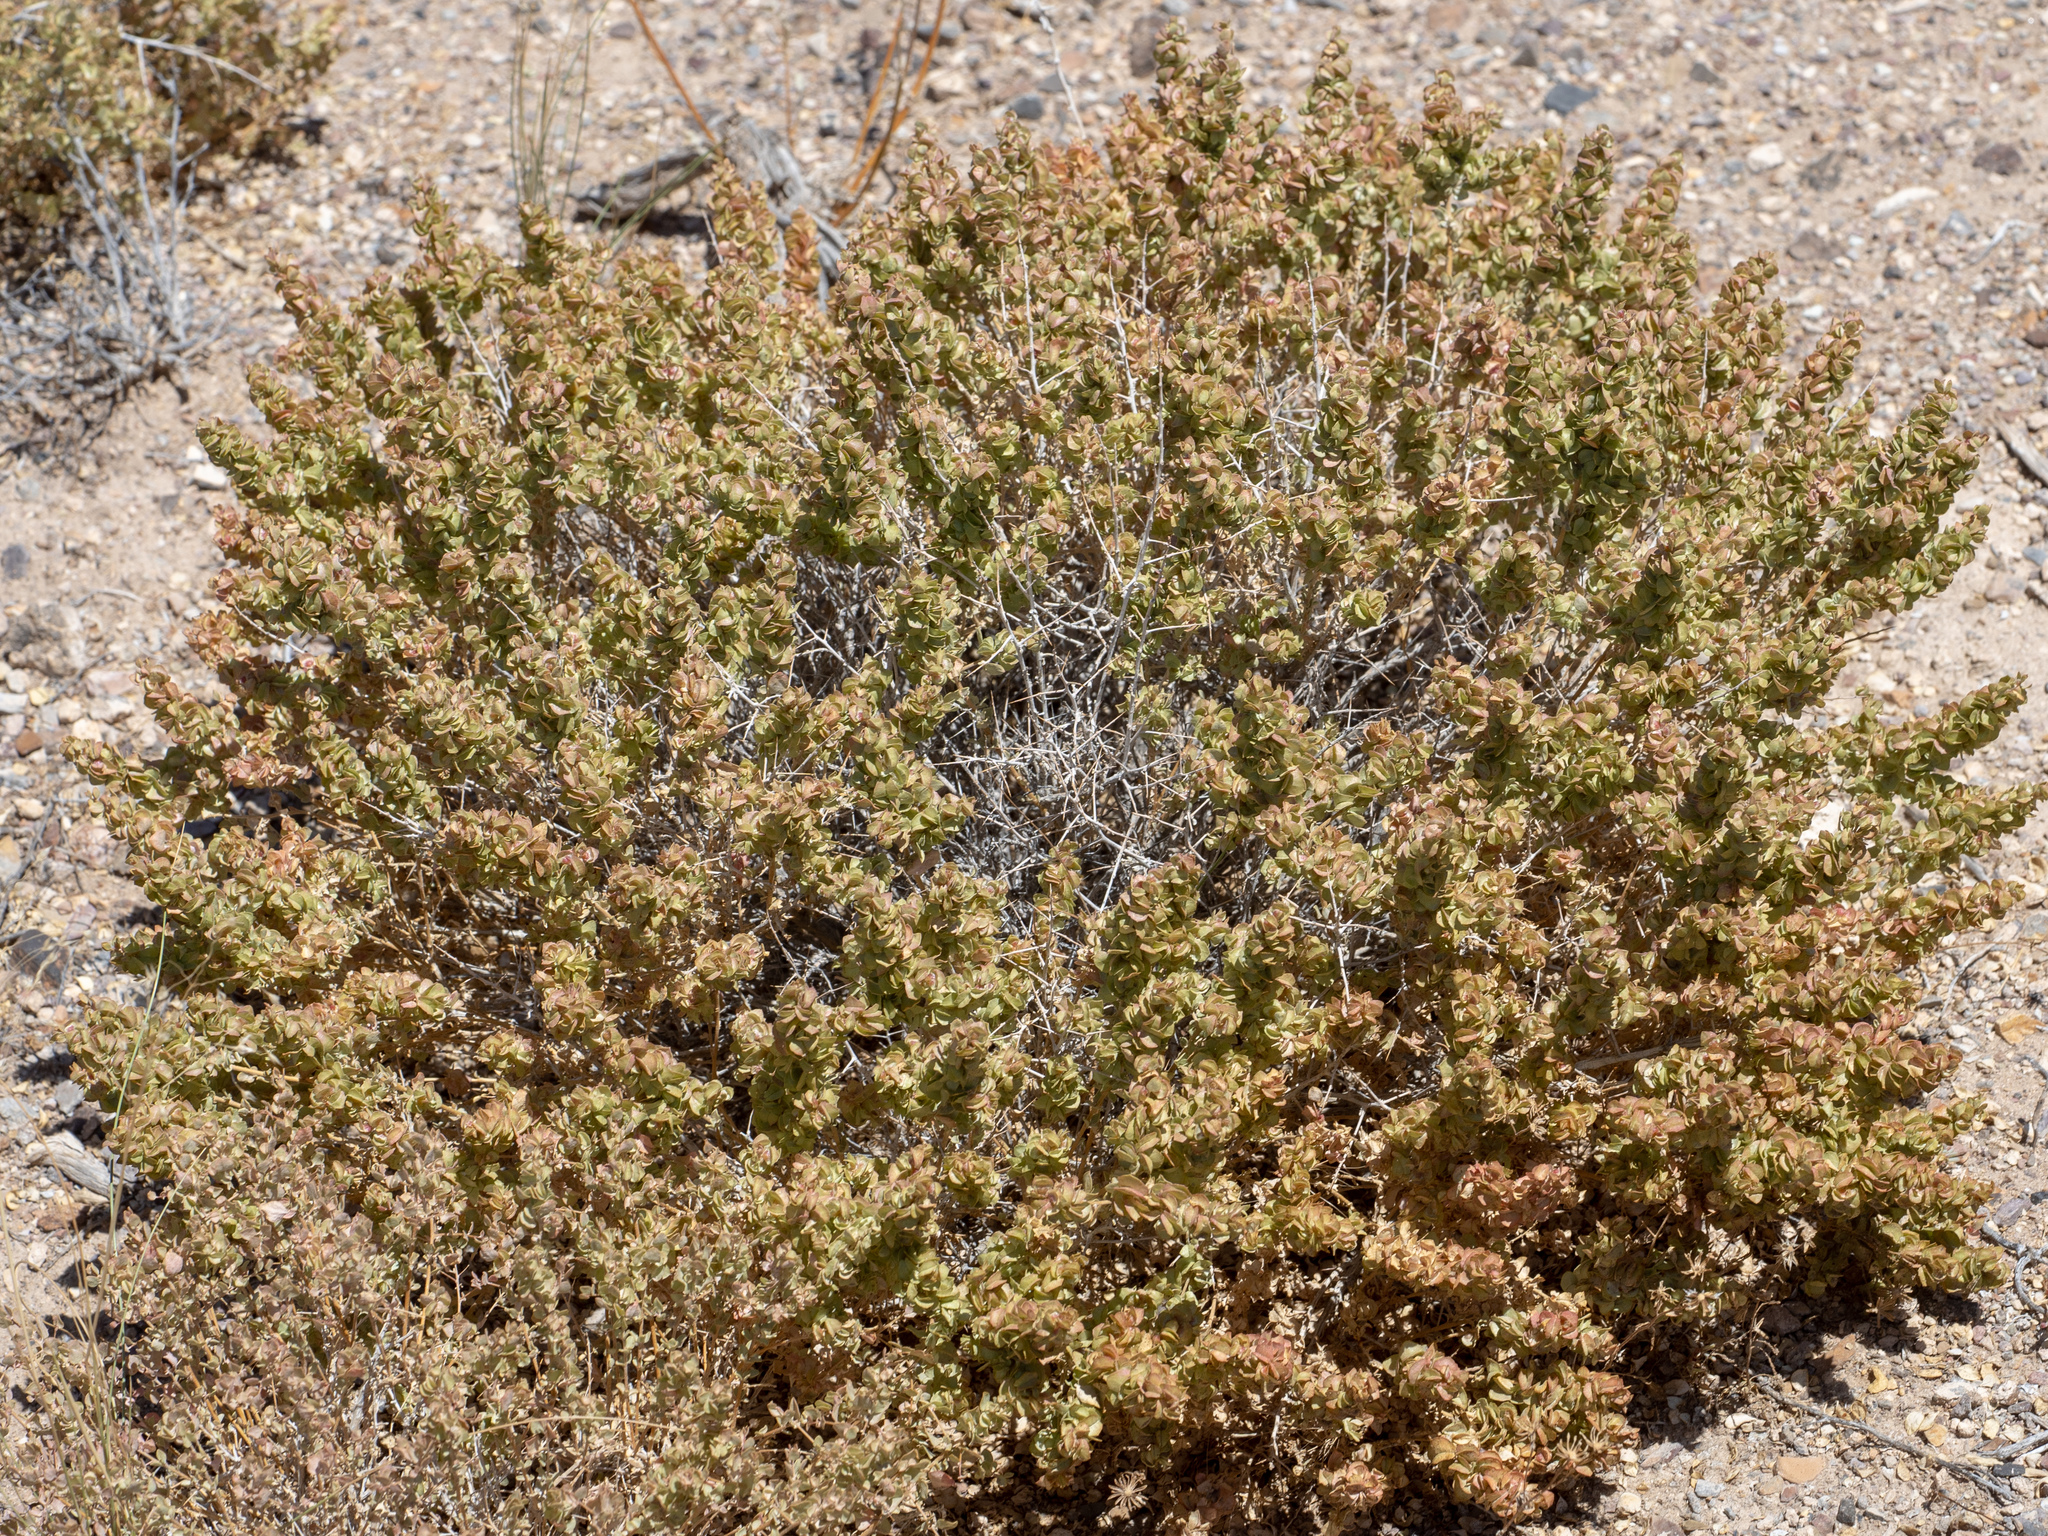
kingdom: Plantae
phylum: Tracheophyta
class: Magnoliopsida
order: Caryophyllales
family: Amaranthaceae
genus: Atriplex
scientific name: Atriplex confertifolia
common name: Shadscale
